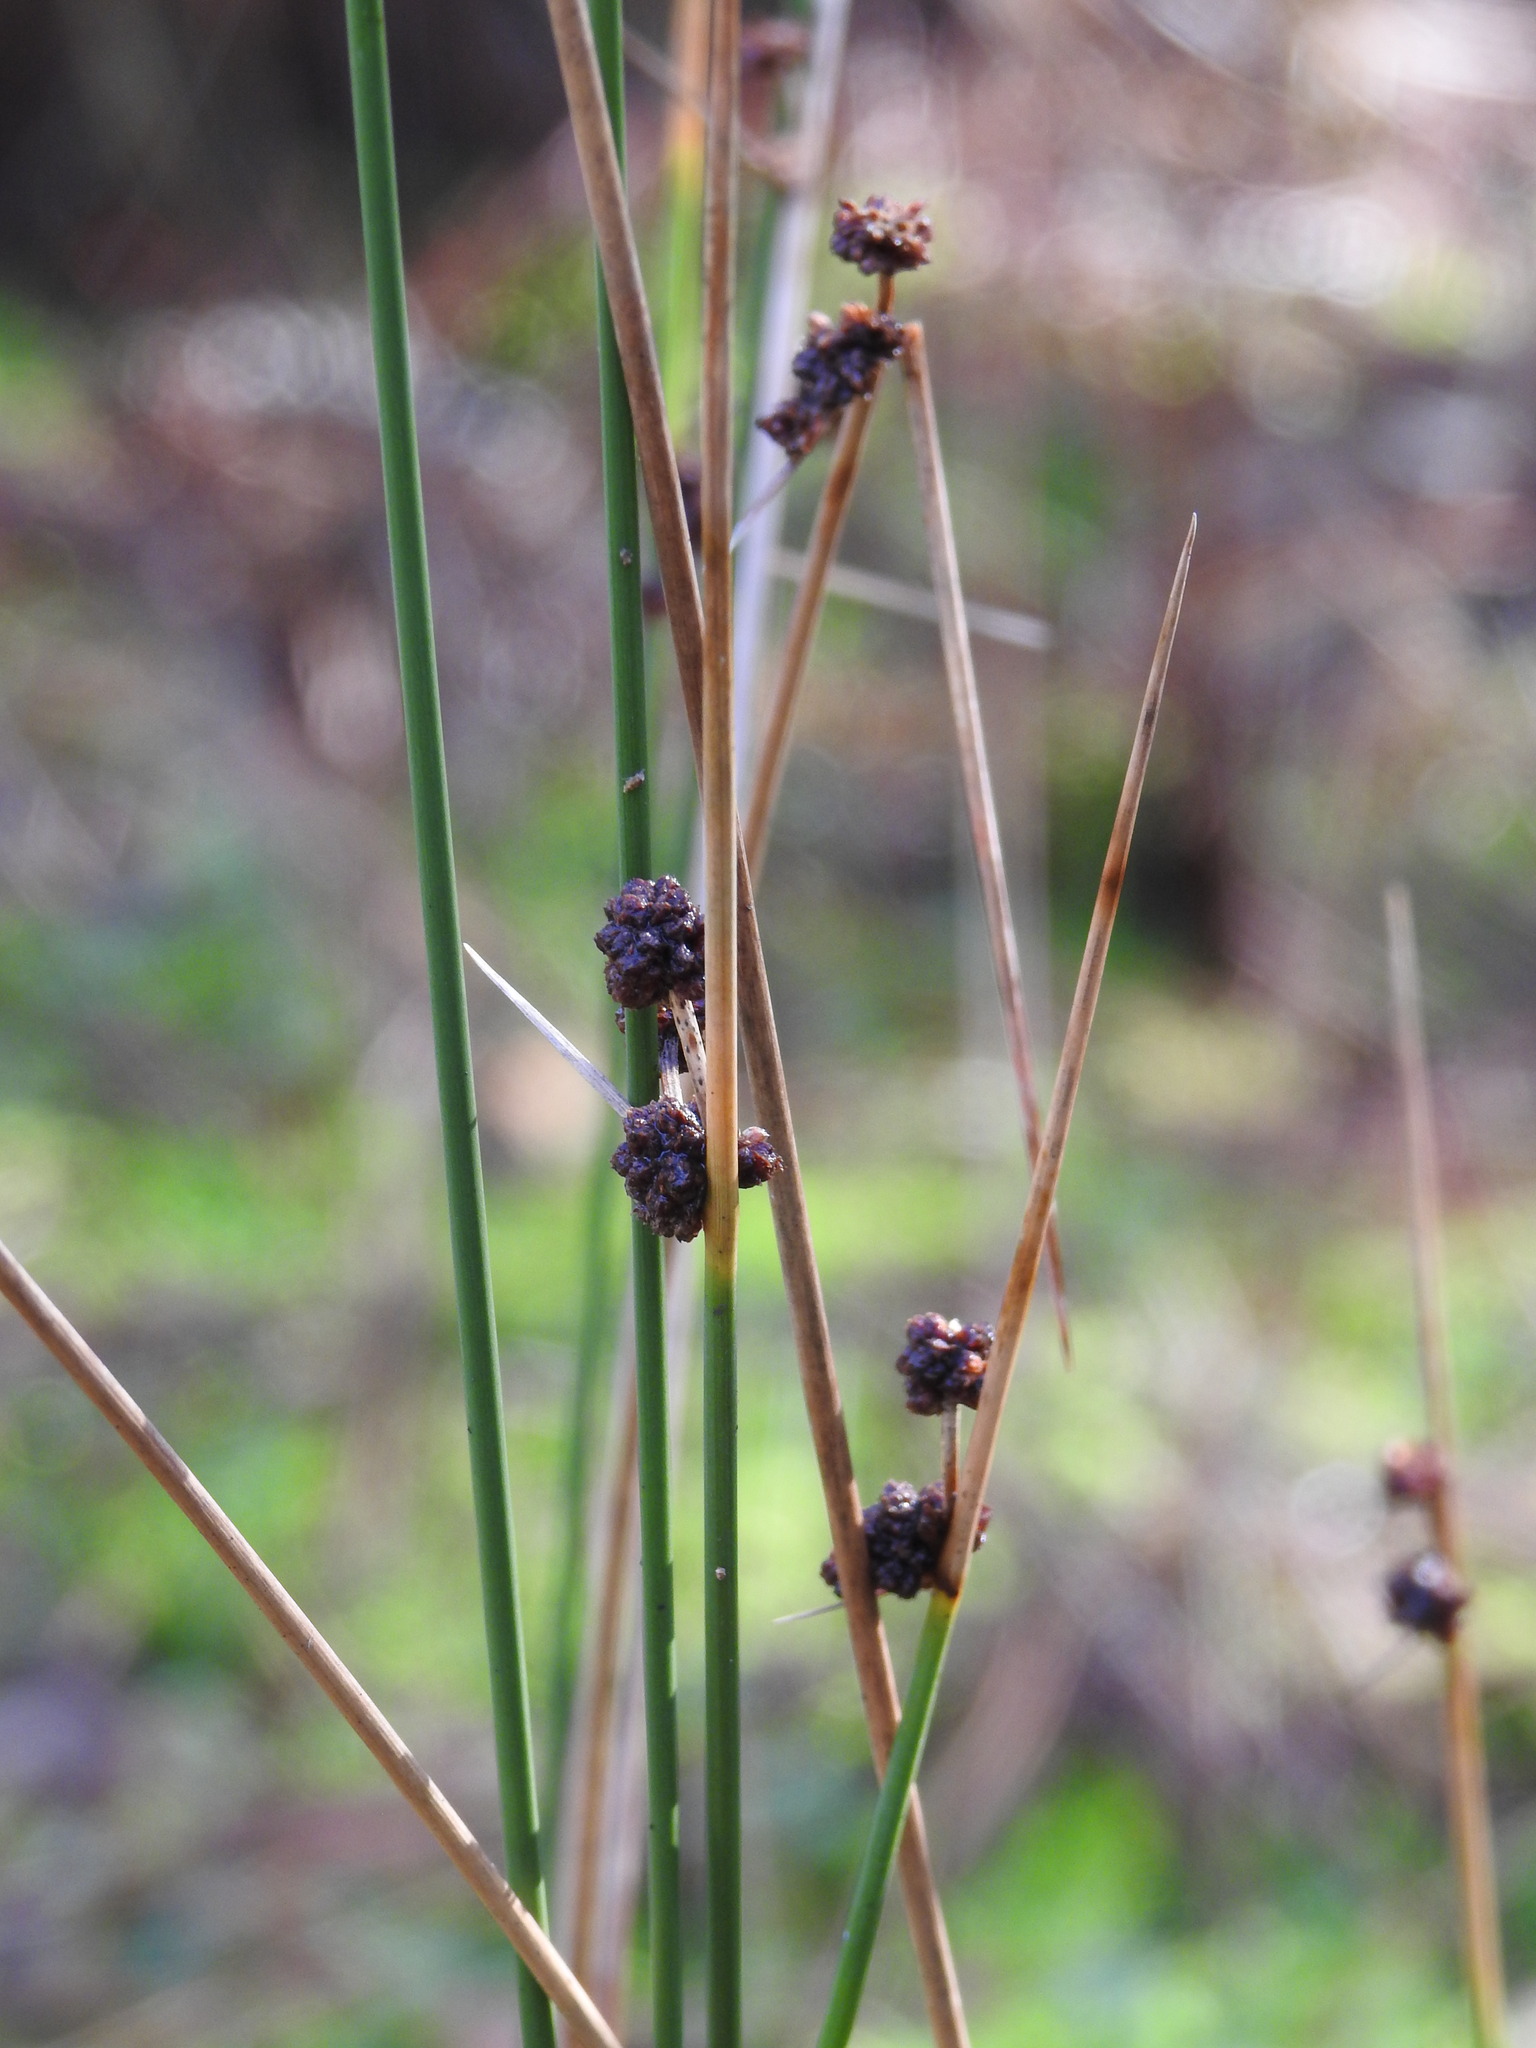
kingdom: Plantae
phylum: Tracheophyta
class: Liliopsida
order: Poales
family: Cyperaceae
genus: Scirpoides
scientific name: Scirpoides holoschoenus
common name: Round-headed club-rush
